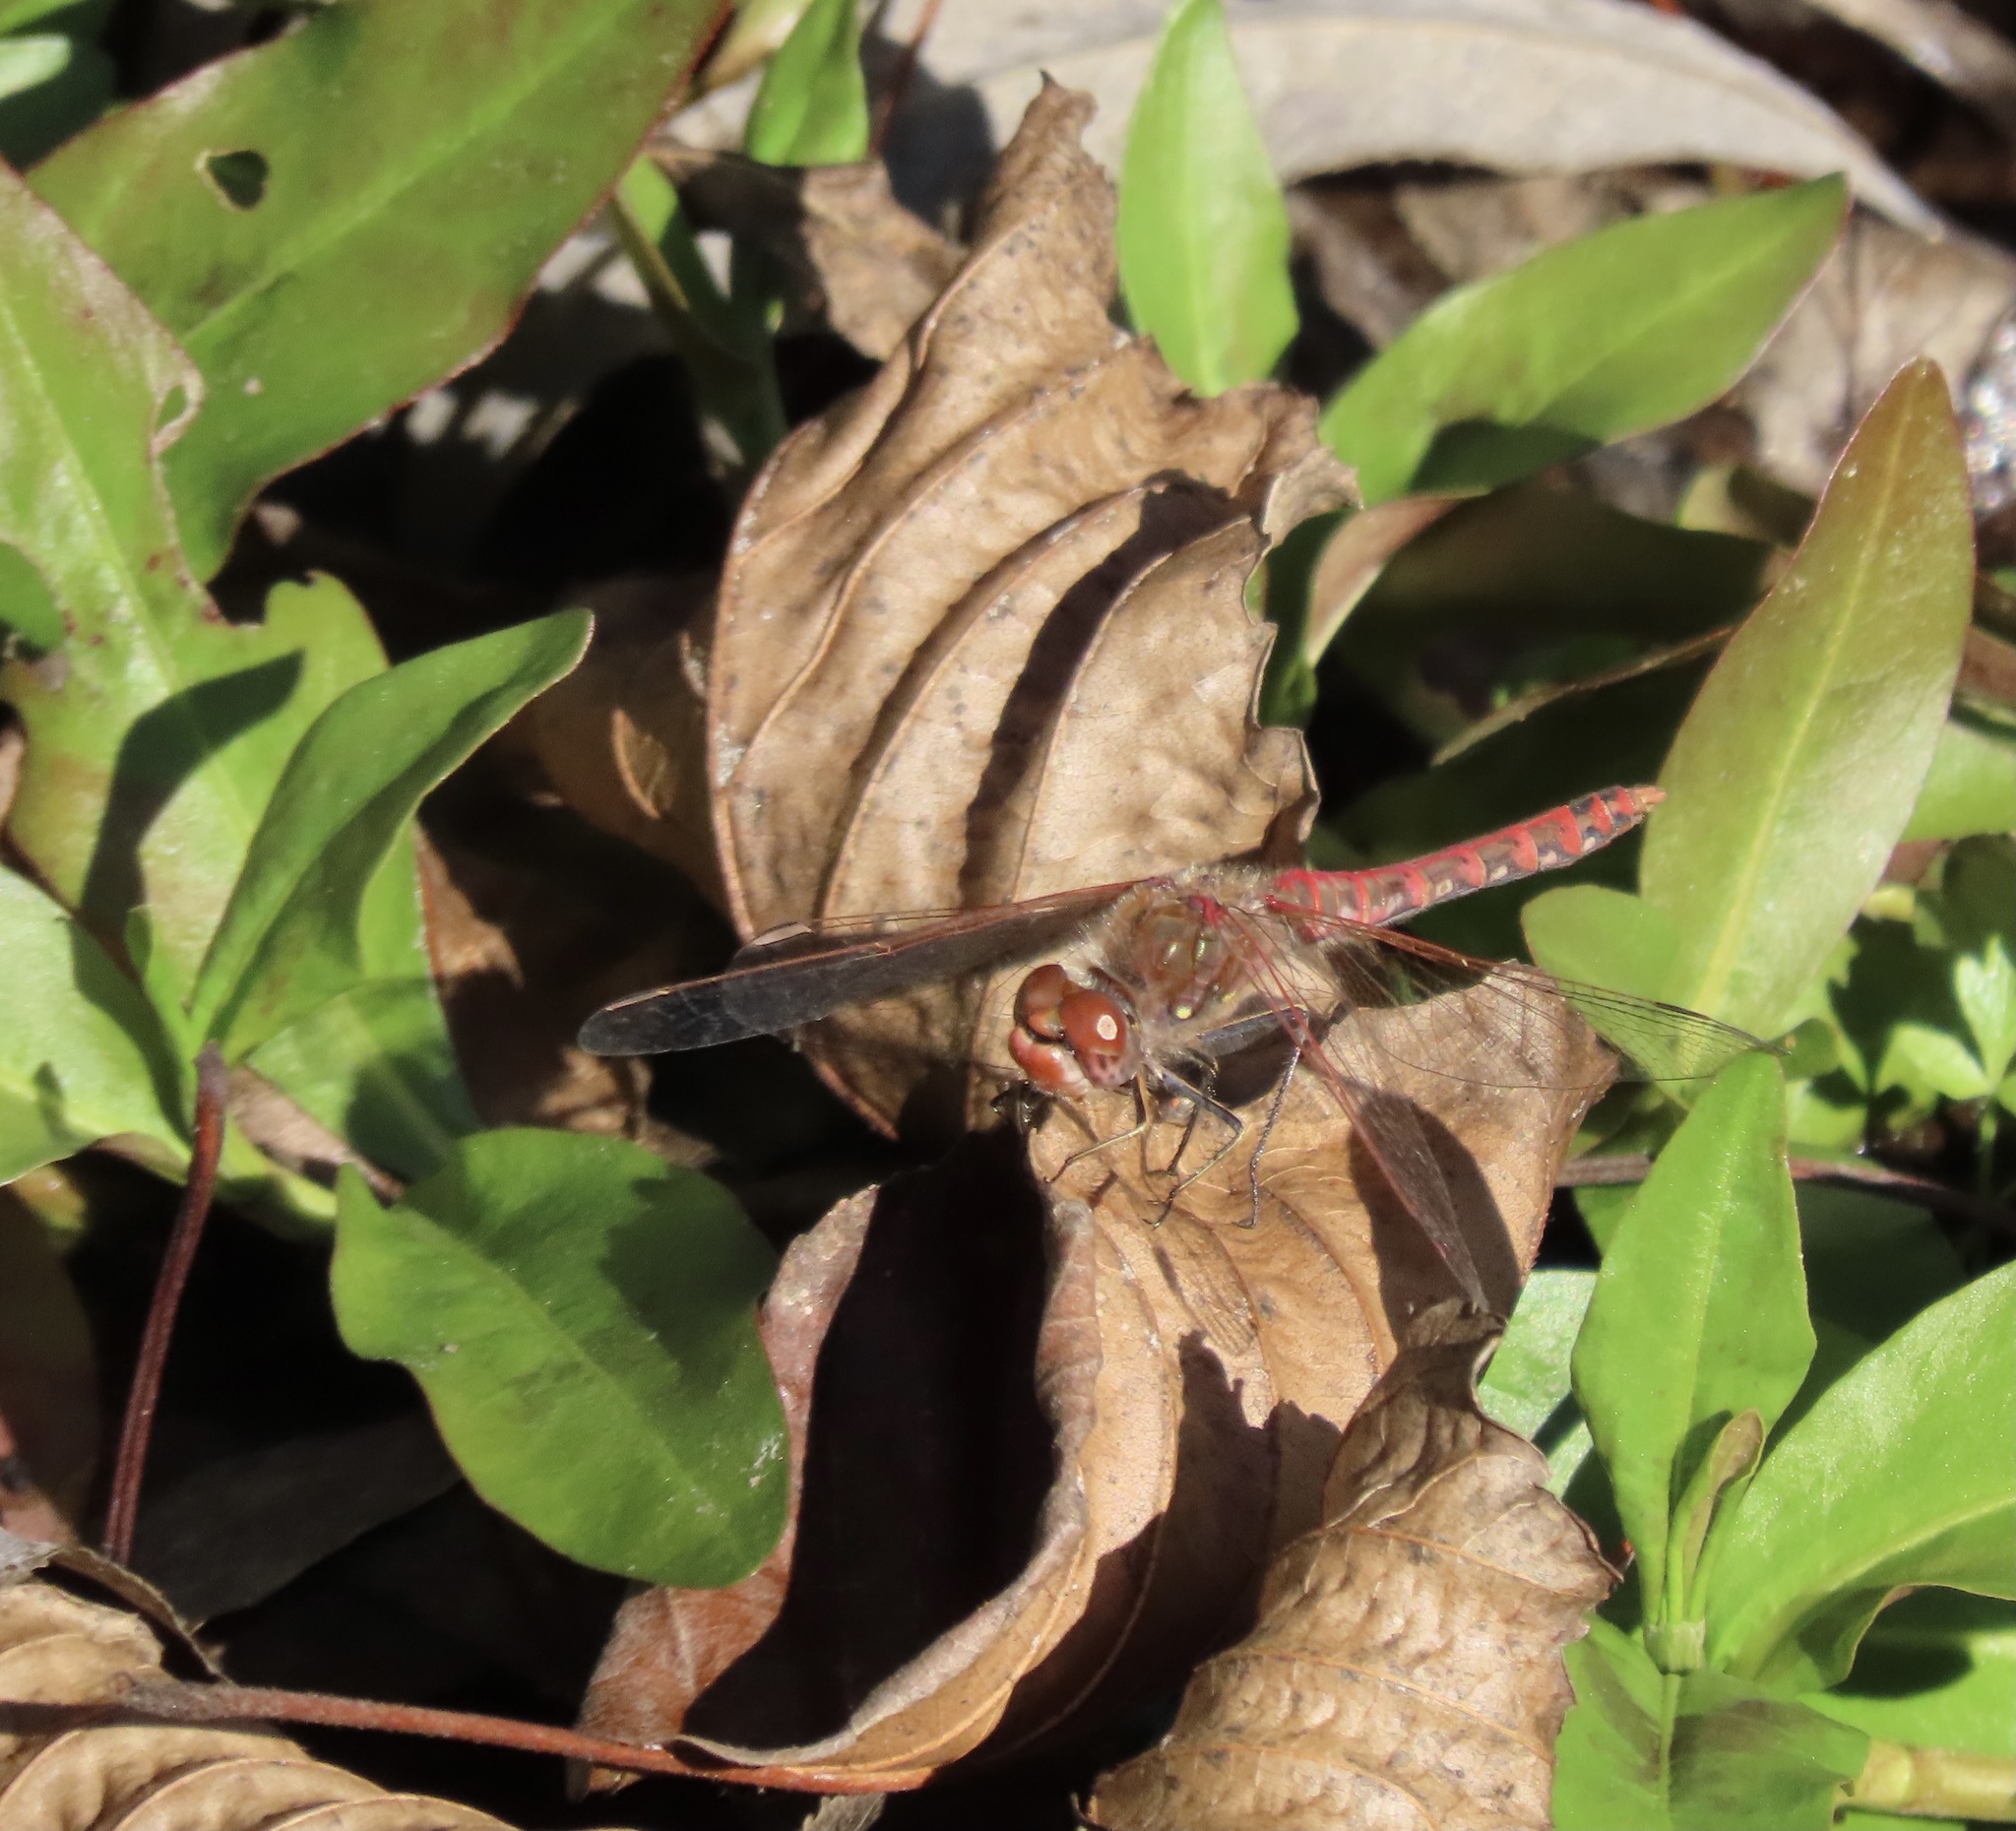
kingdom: Animalia
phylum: Arthropoda
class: Insecta
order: Odonata
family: Libellulidae
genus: Sympetrum
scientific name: Sympetrum corruptum
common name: Variegated meadowhawk
